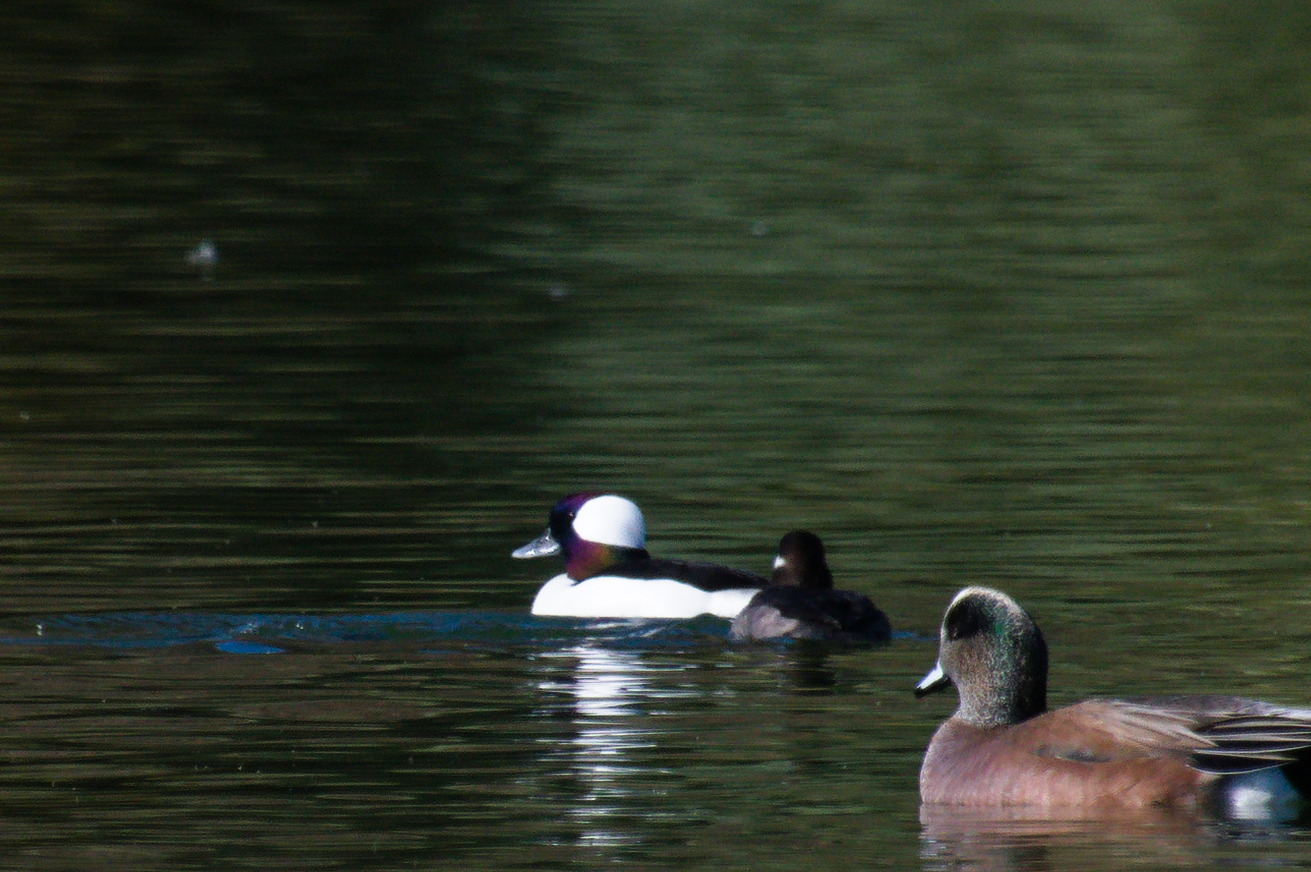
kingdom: Animalia
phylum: Chordata
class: Aves
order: Anseriformes
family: Anatidae
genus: Bucephala
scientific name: Bucephala albeola
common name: Bufflehead
